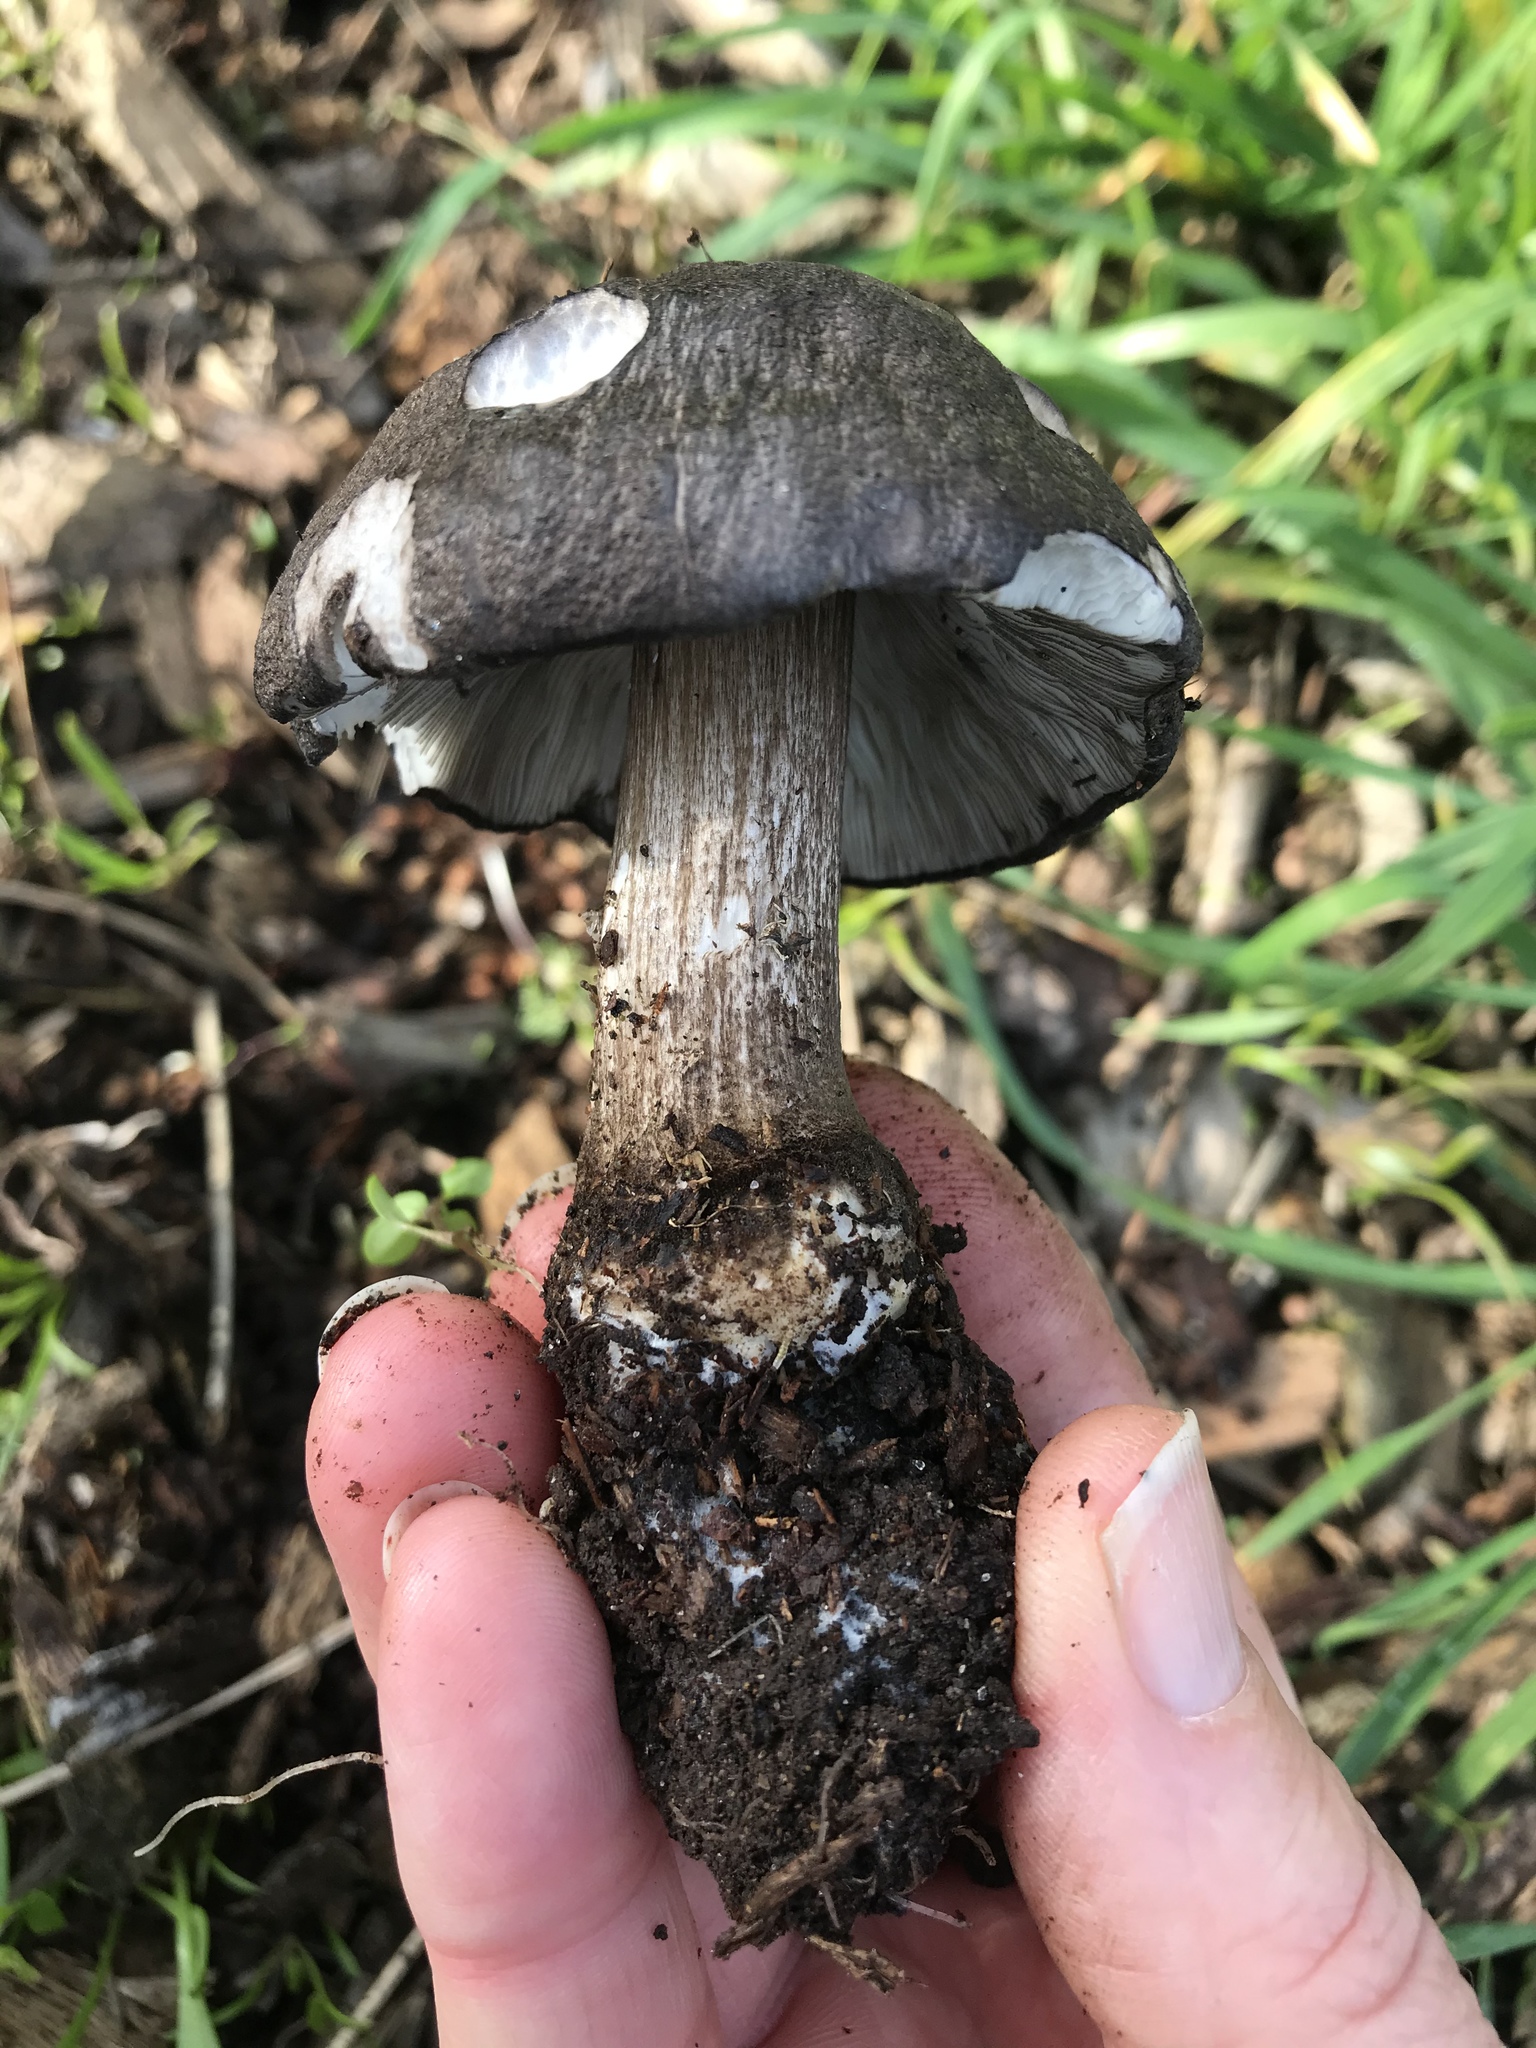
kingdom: Fungi
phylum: Basidiomycota
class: Agaricomycetes
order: Agaricales
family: Pluteaceae
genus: Pluteus
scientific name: Pluteus atromarginatus
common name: Blackedged shield
